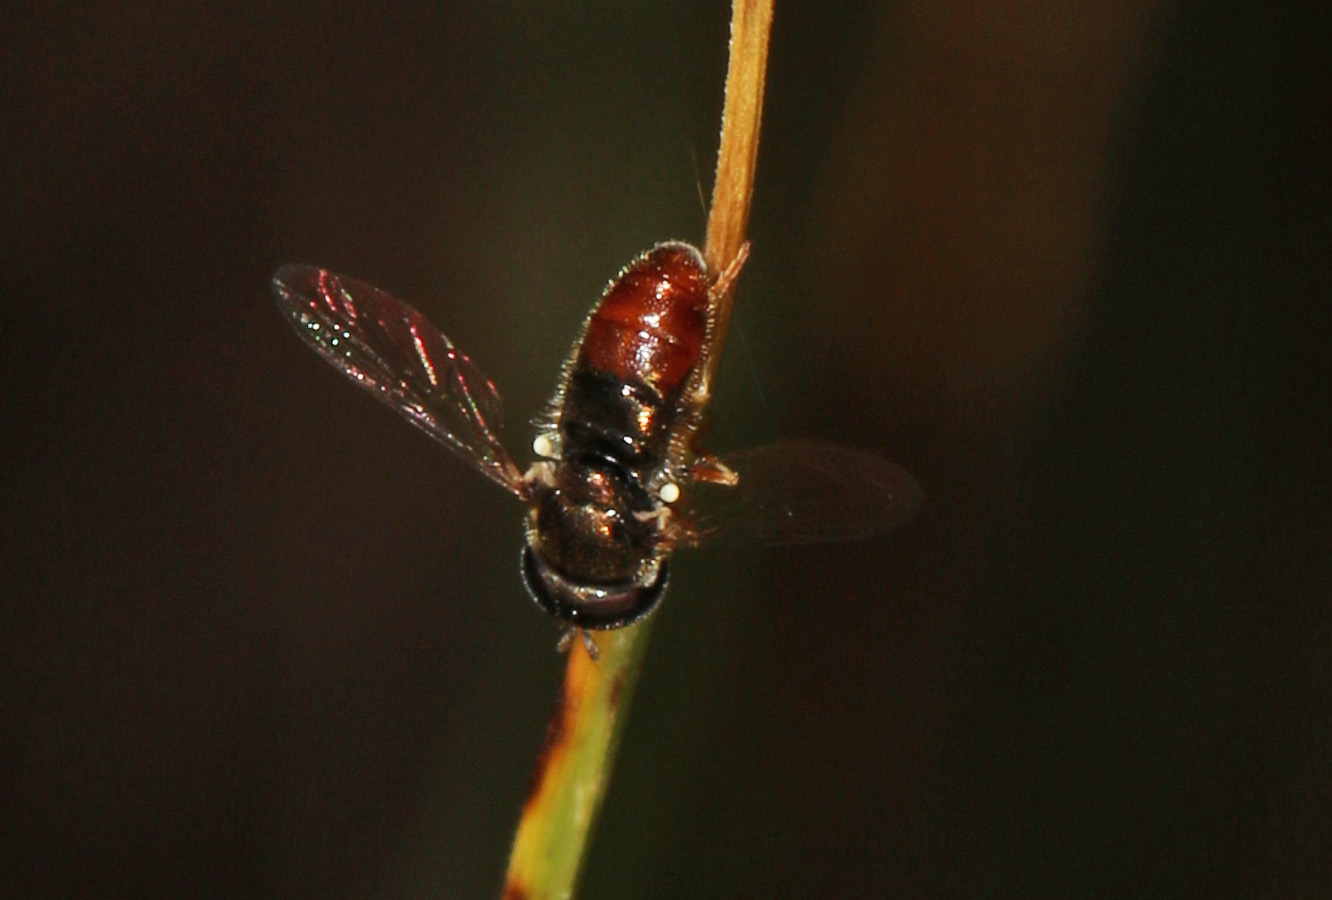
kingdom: Animalia
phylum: Arthropoda
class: Insecta
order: Diptera
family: Syrphidae
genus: Paragus
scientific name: Paragus haemorrhous
